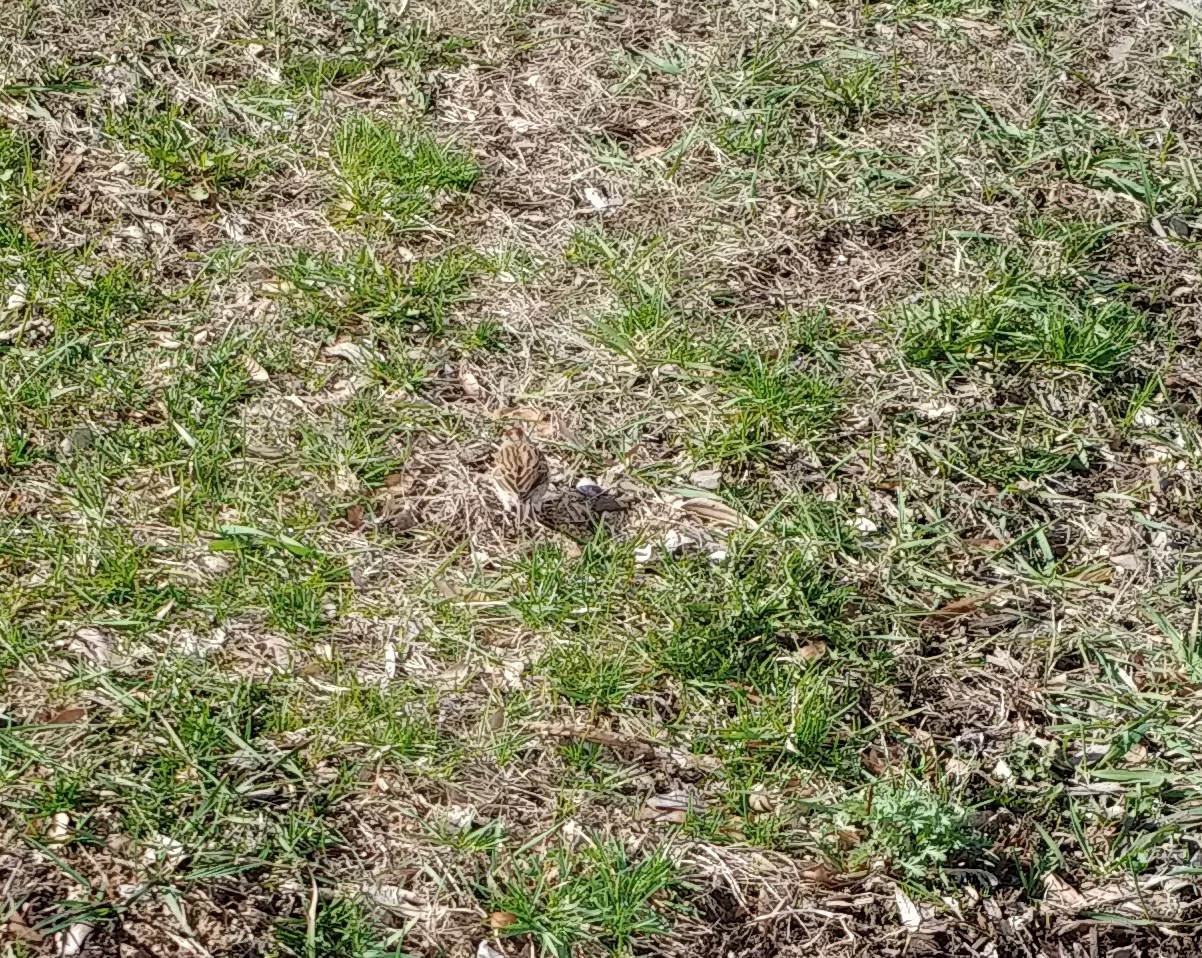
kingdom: Animalia
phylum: Chordata
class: Aves
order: Passeriformes
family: Passerellidae
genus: Spizella
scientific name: Spizella passerina
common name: Chipping sparrow
